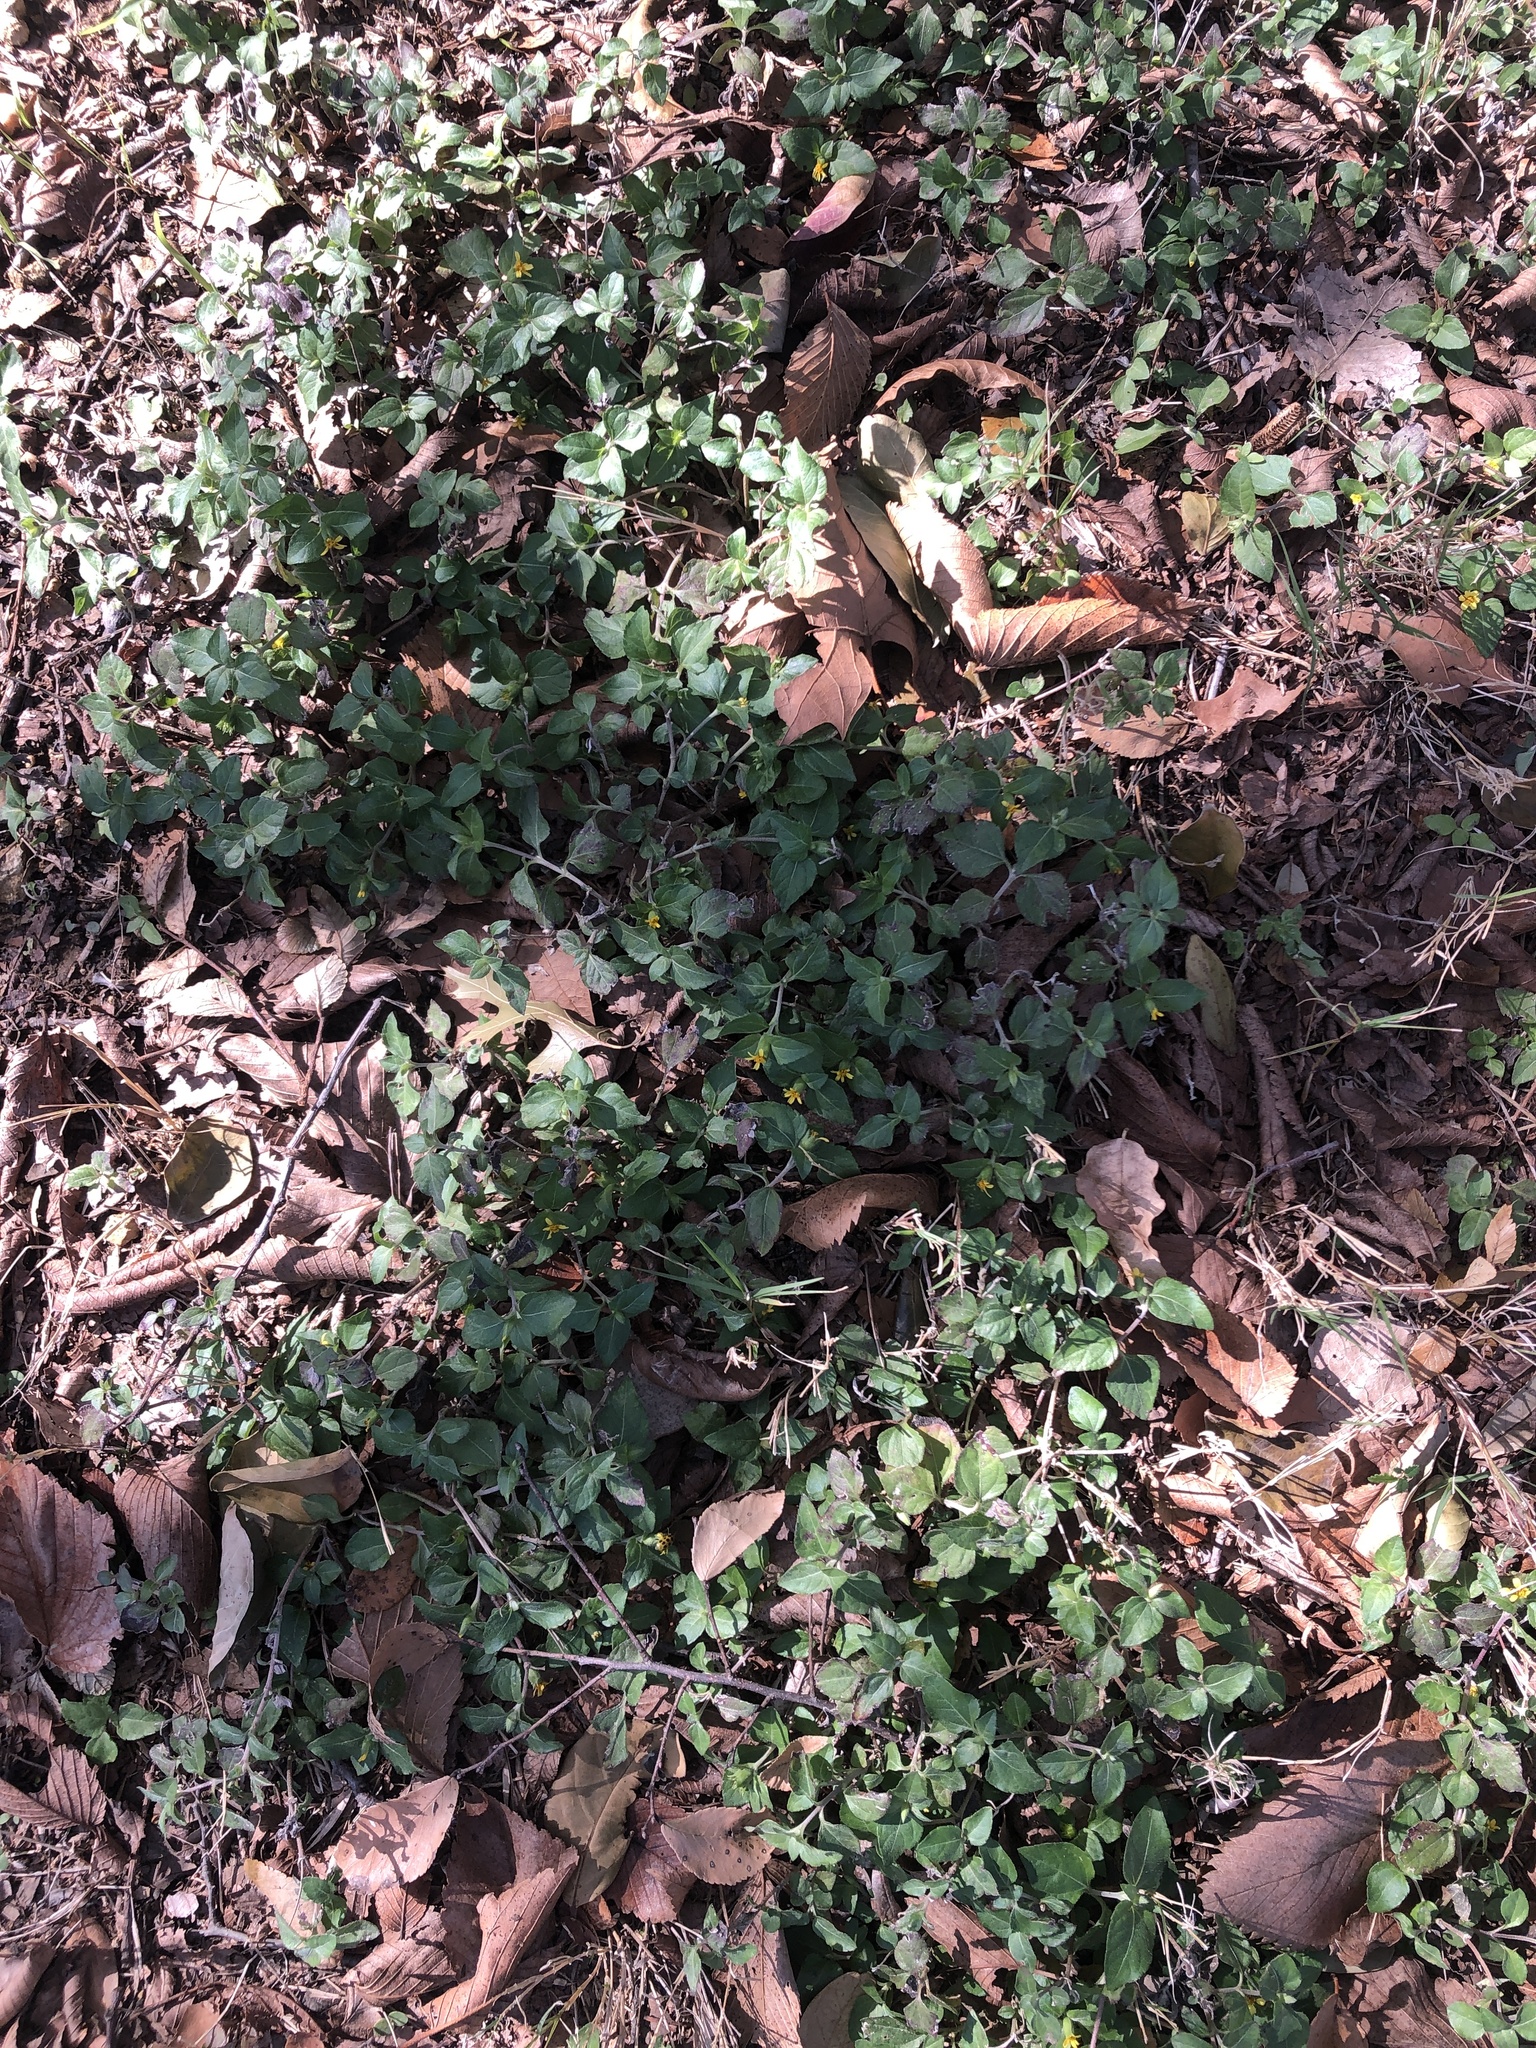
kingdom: Plantae
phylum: Tracheophyta
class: Magnoliopsida
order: Asterales
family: Asteraceae
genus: Calyptocarpus
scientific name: Calyptocarpus vialis
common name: Straggler daisy
